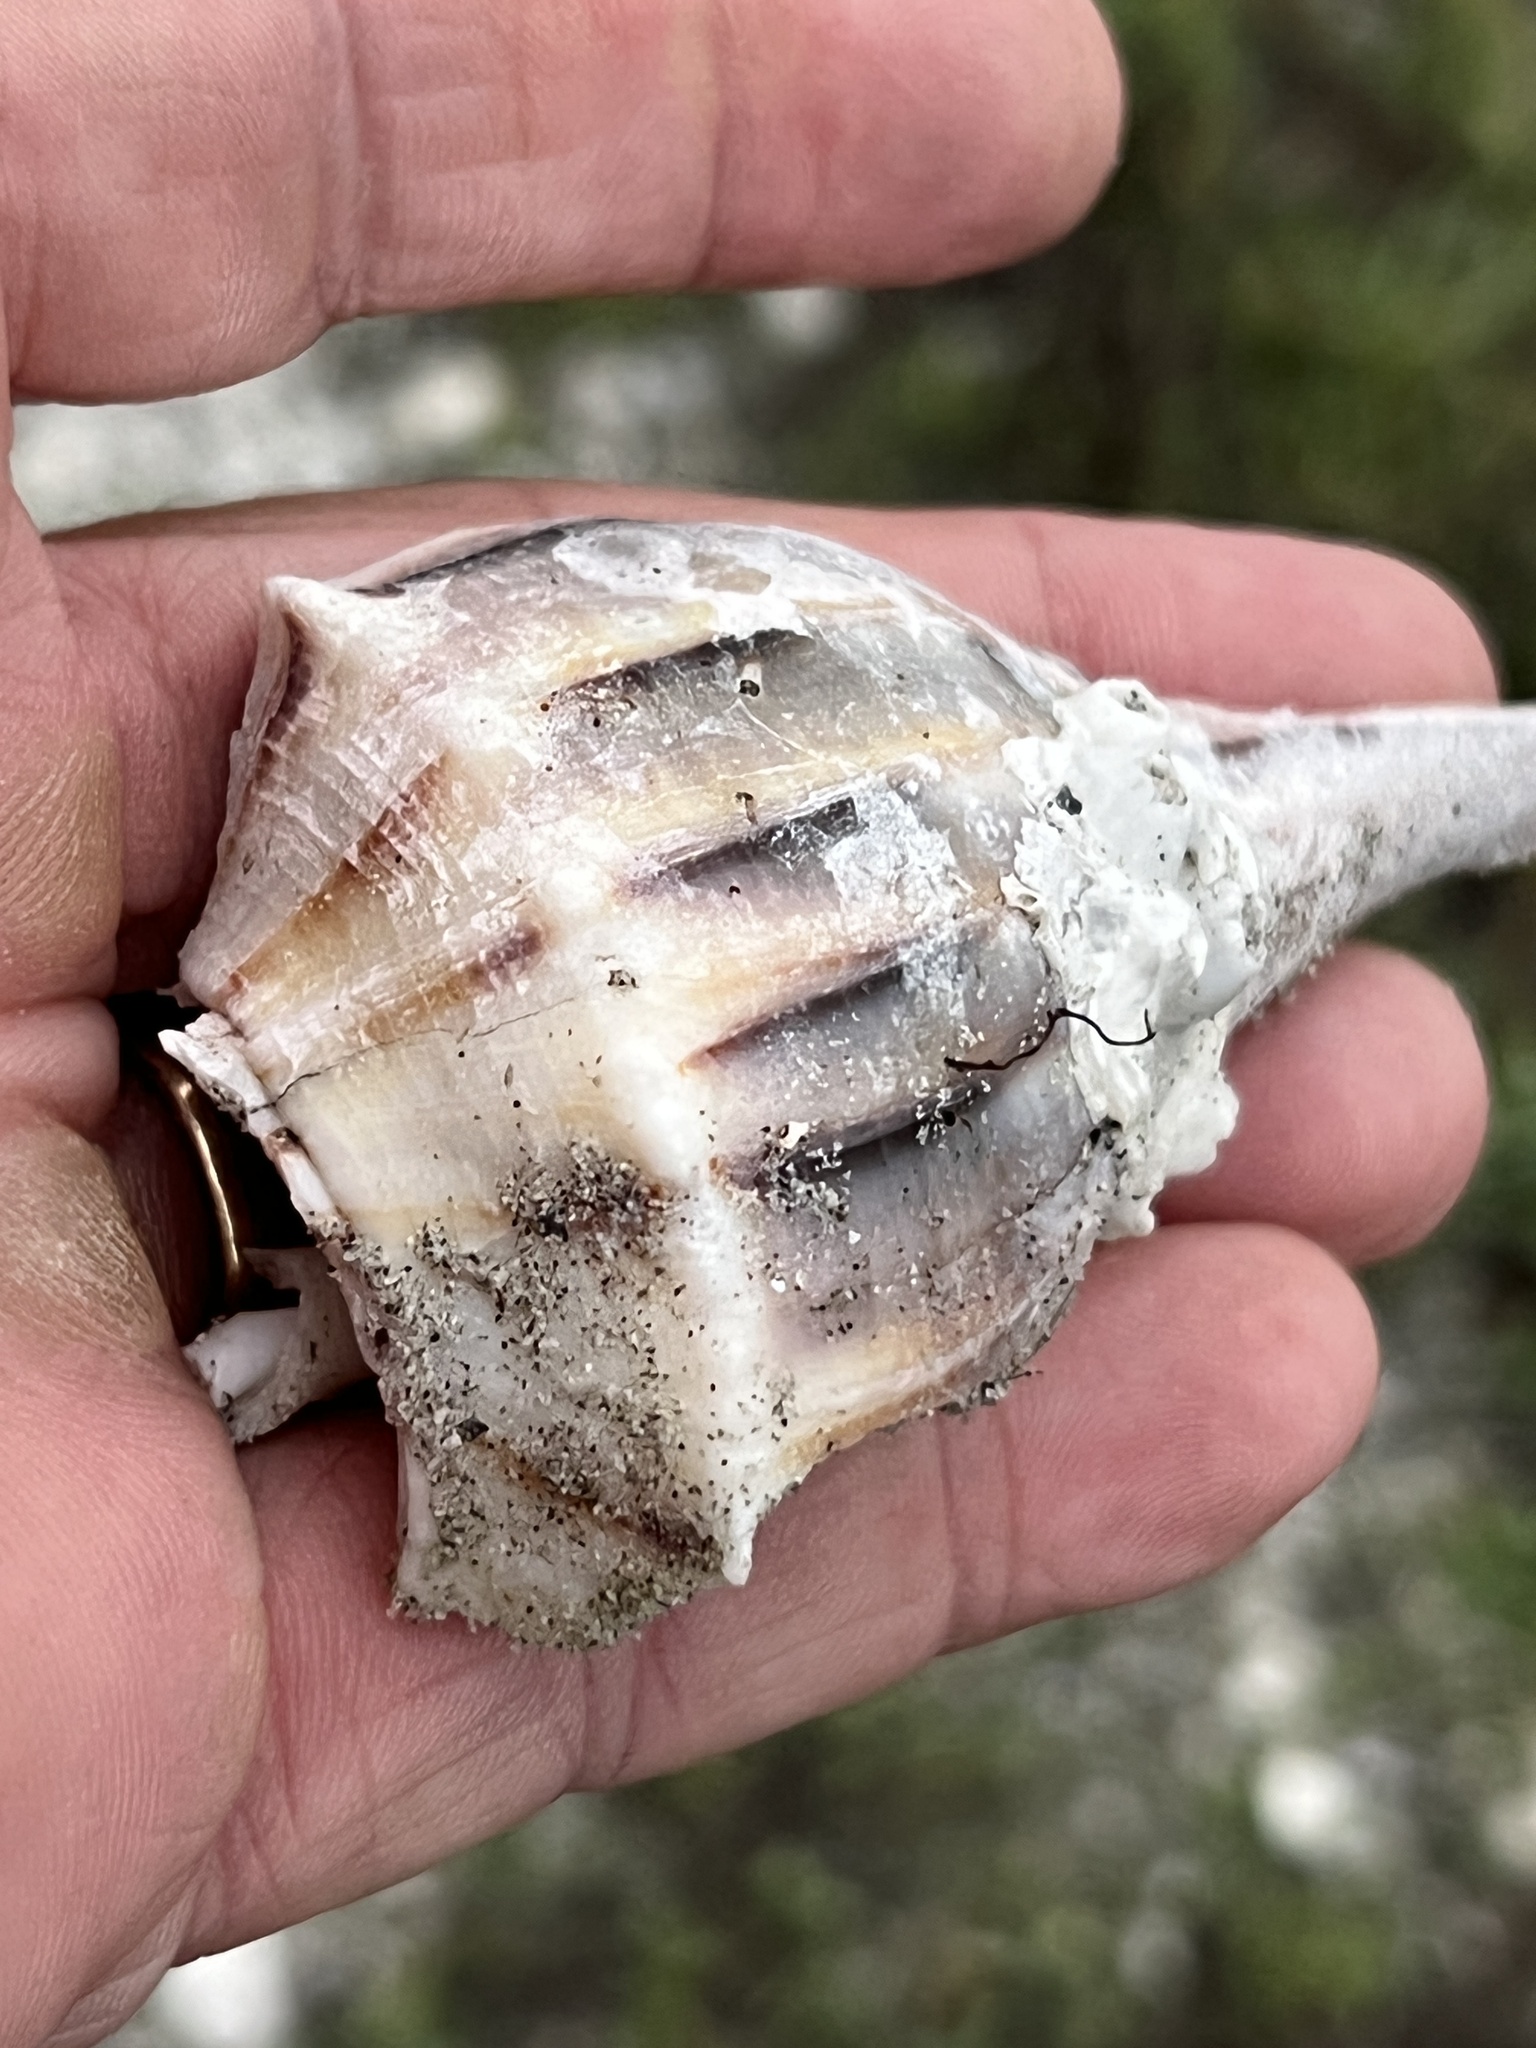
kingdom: Animalia
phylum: Mollusca
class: Gastropoda
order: Neogastropoda
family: Busyconidae
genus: Sinistrofulgur
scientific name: Sinistrofulgur pulleyi
